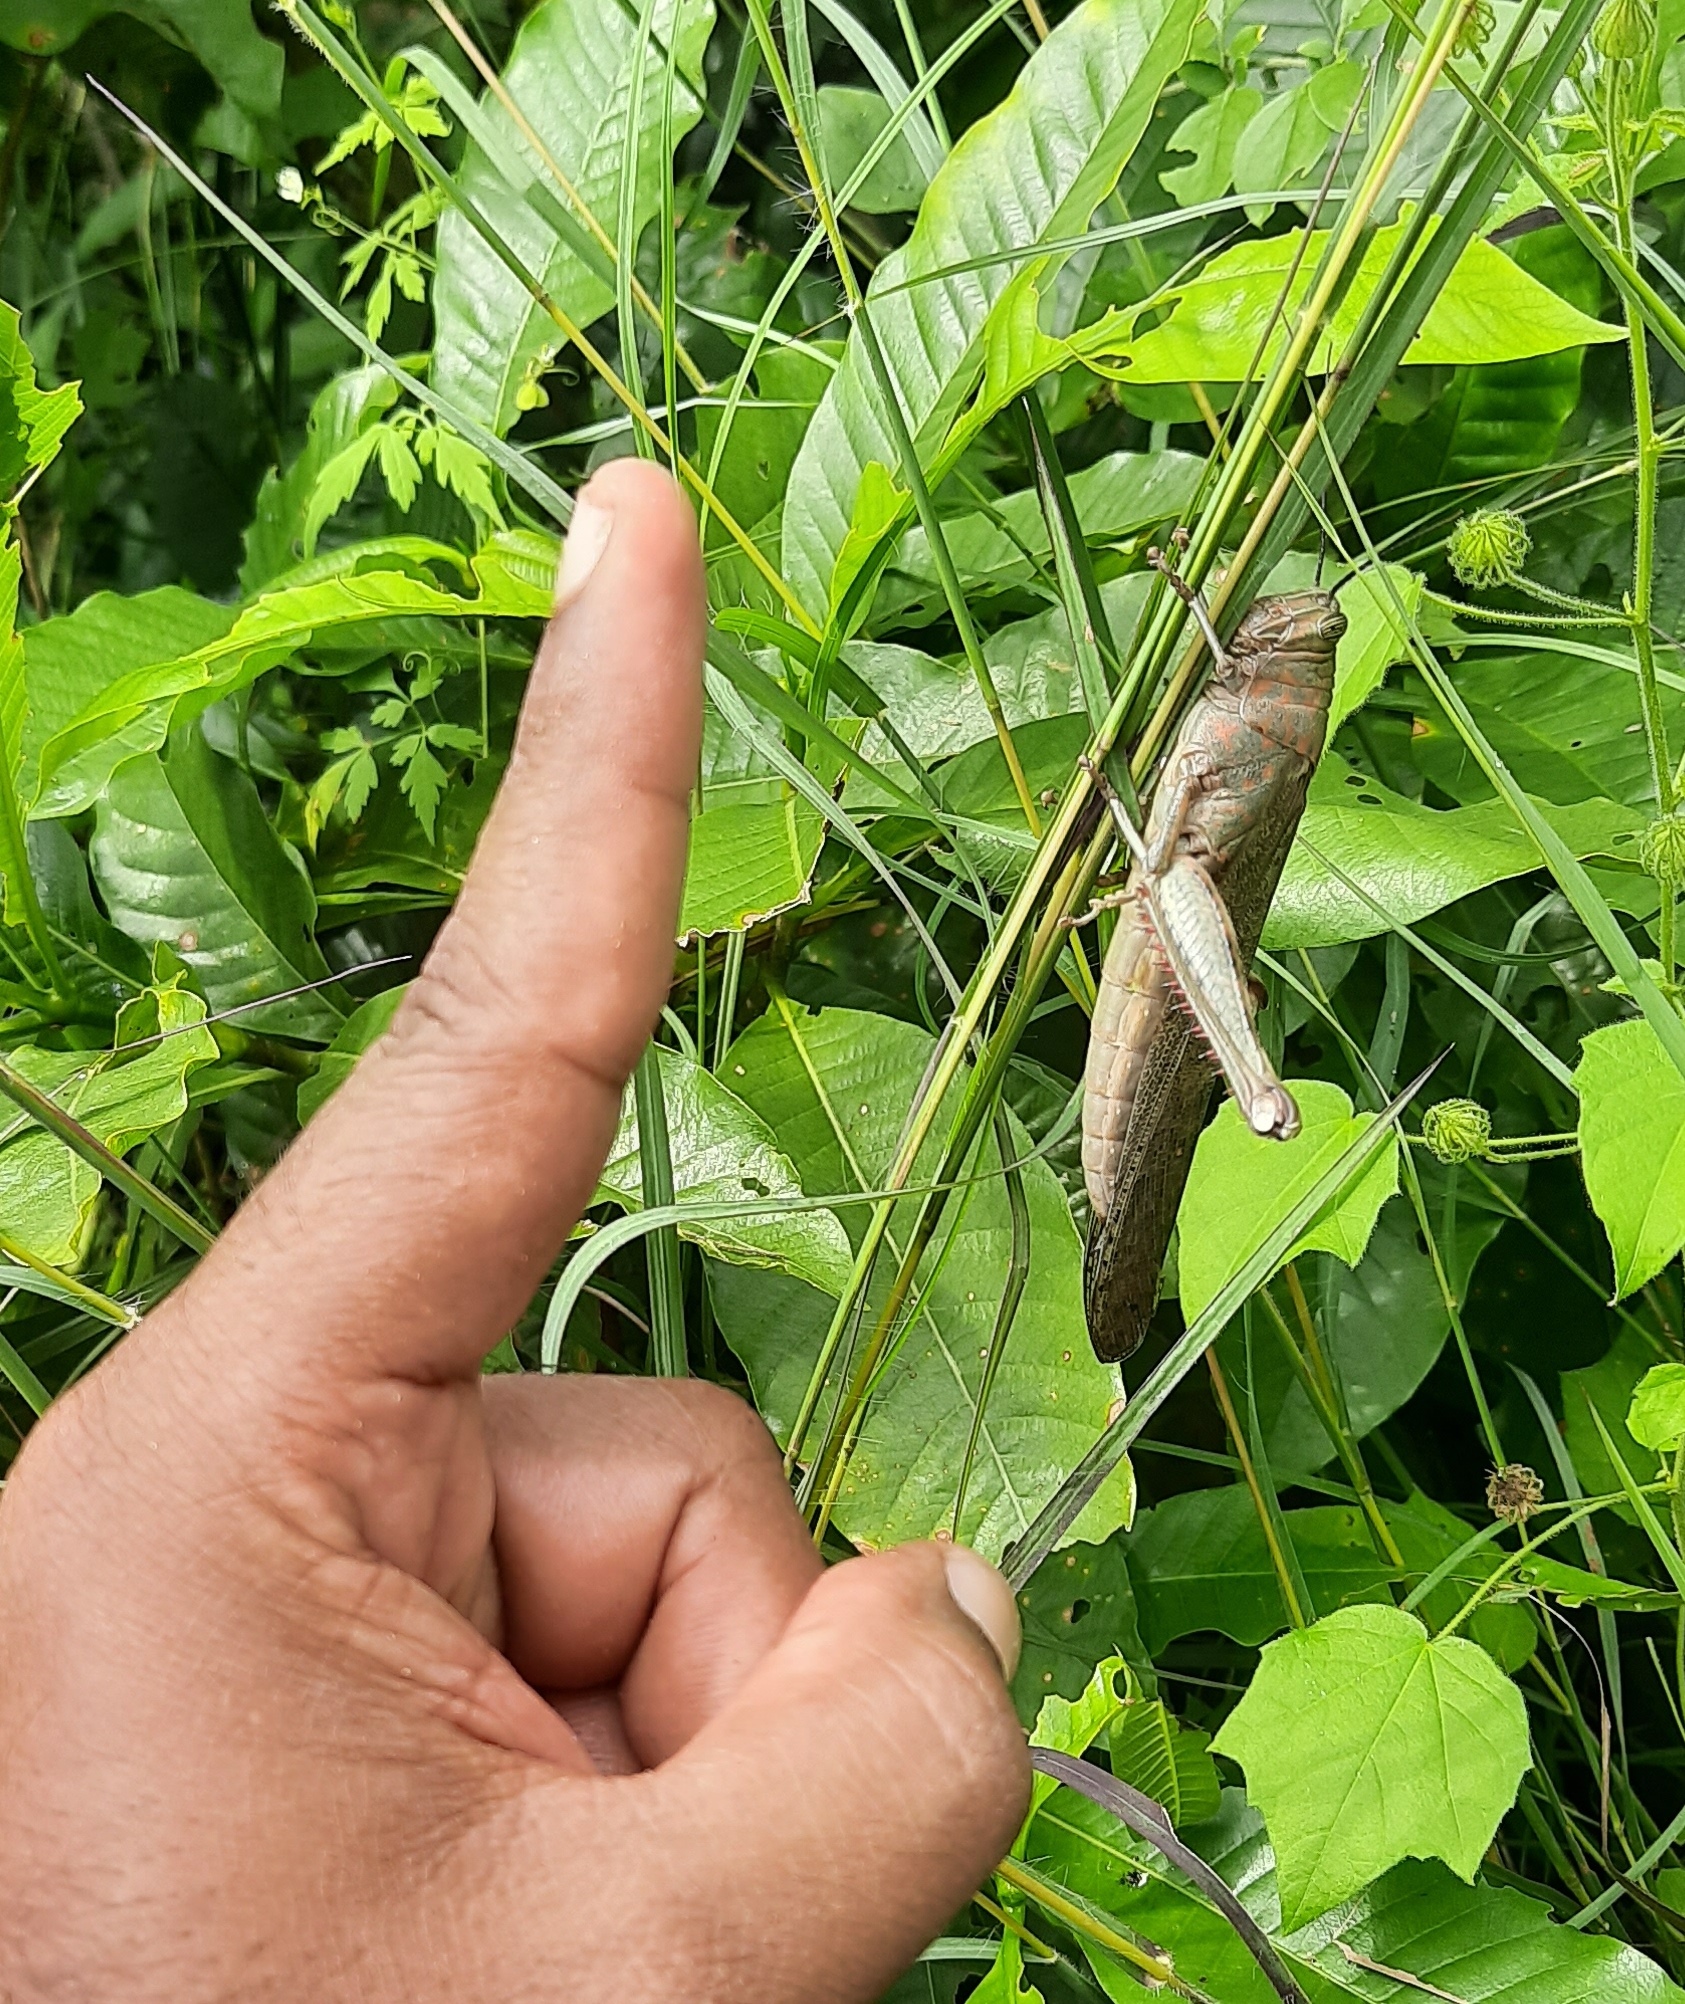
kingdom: Animalia
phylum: Arthropoda
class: Insecta
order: Orthoptera
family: Acrididae
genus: Anacridium
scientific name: Anacridium flavescens
